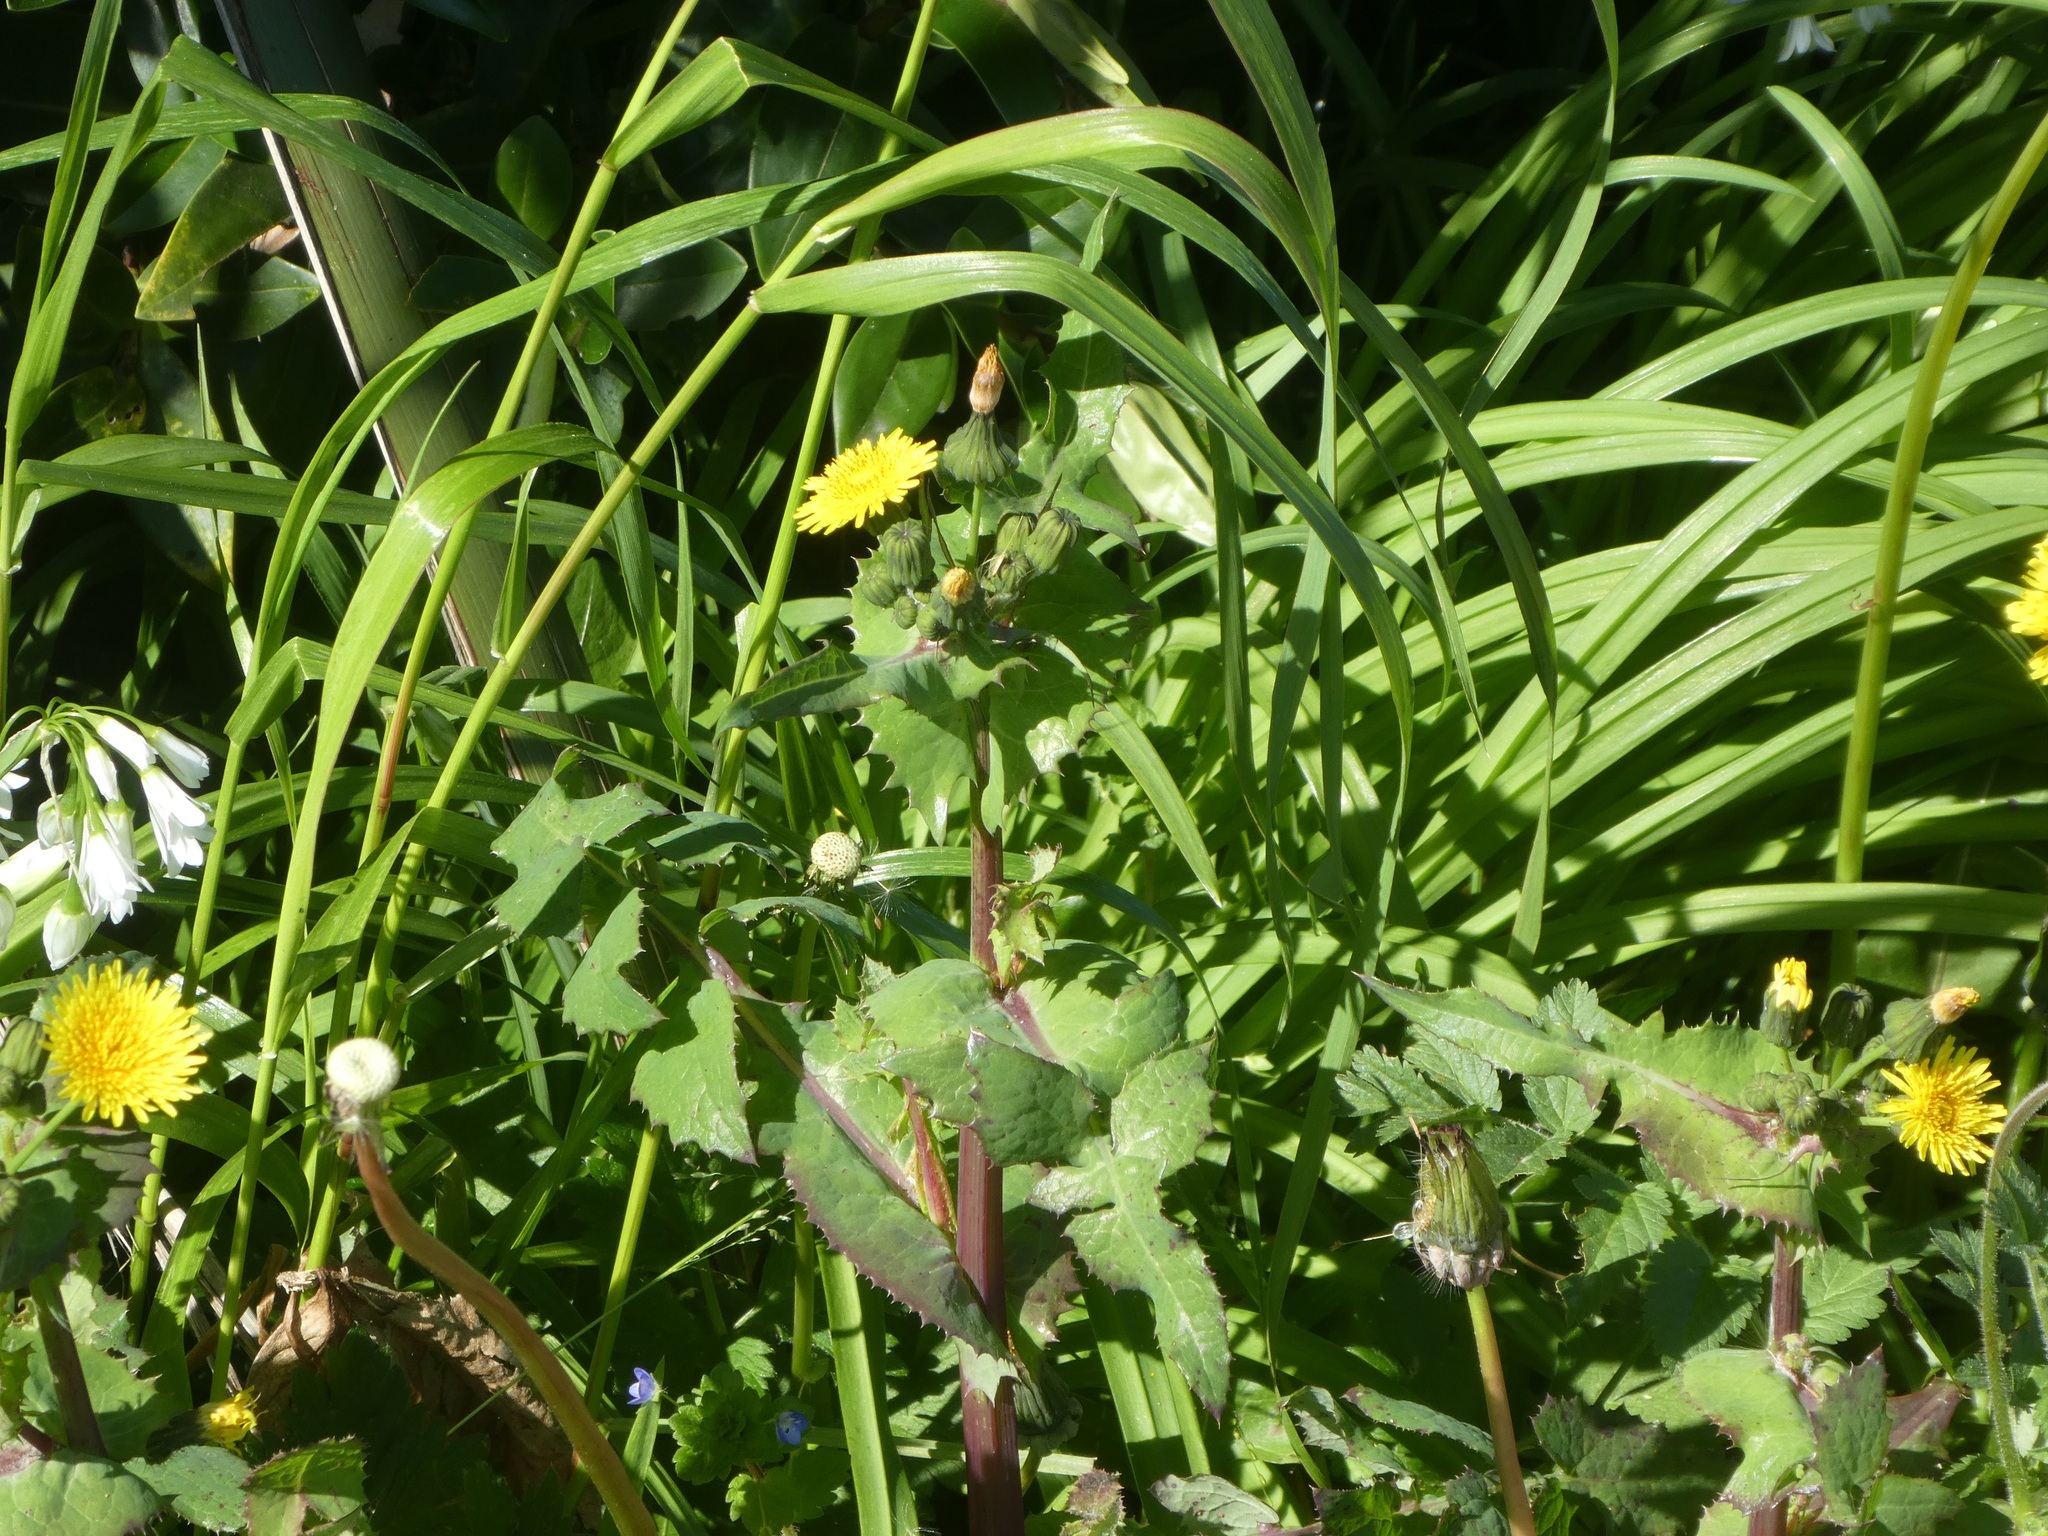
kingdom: Plantae
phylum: Tracheophyta
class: Magnoliopsida
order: Asterales
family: Asteraceae
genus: Sonchus
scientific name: Sonchus oleraceus
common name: Common sowthistle
